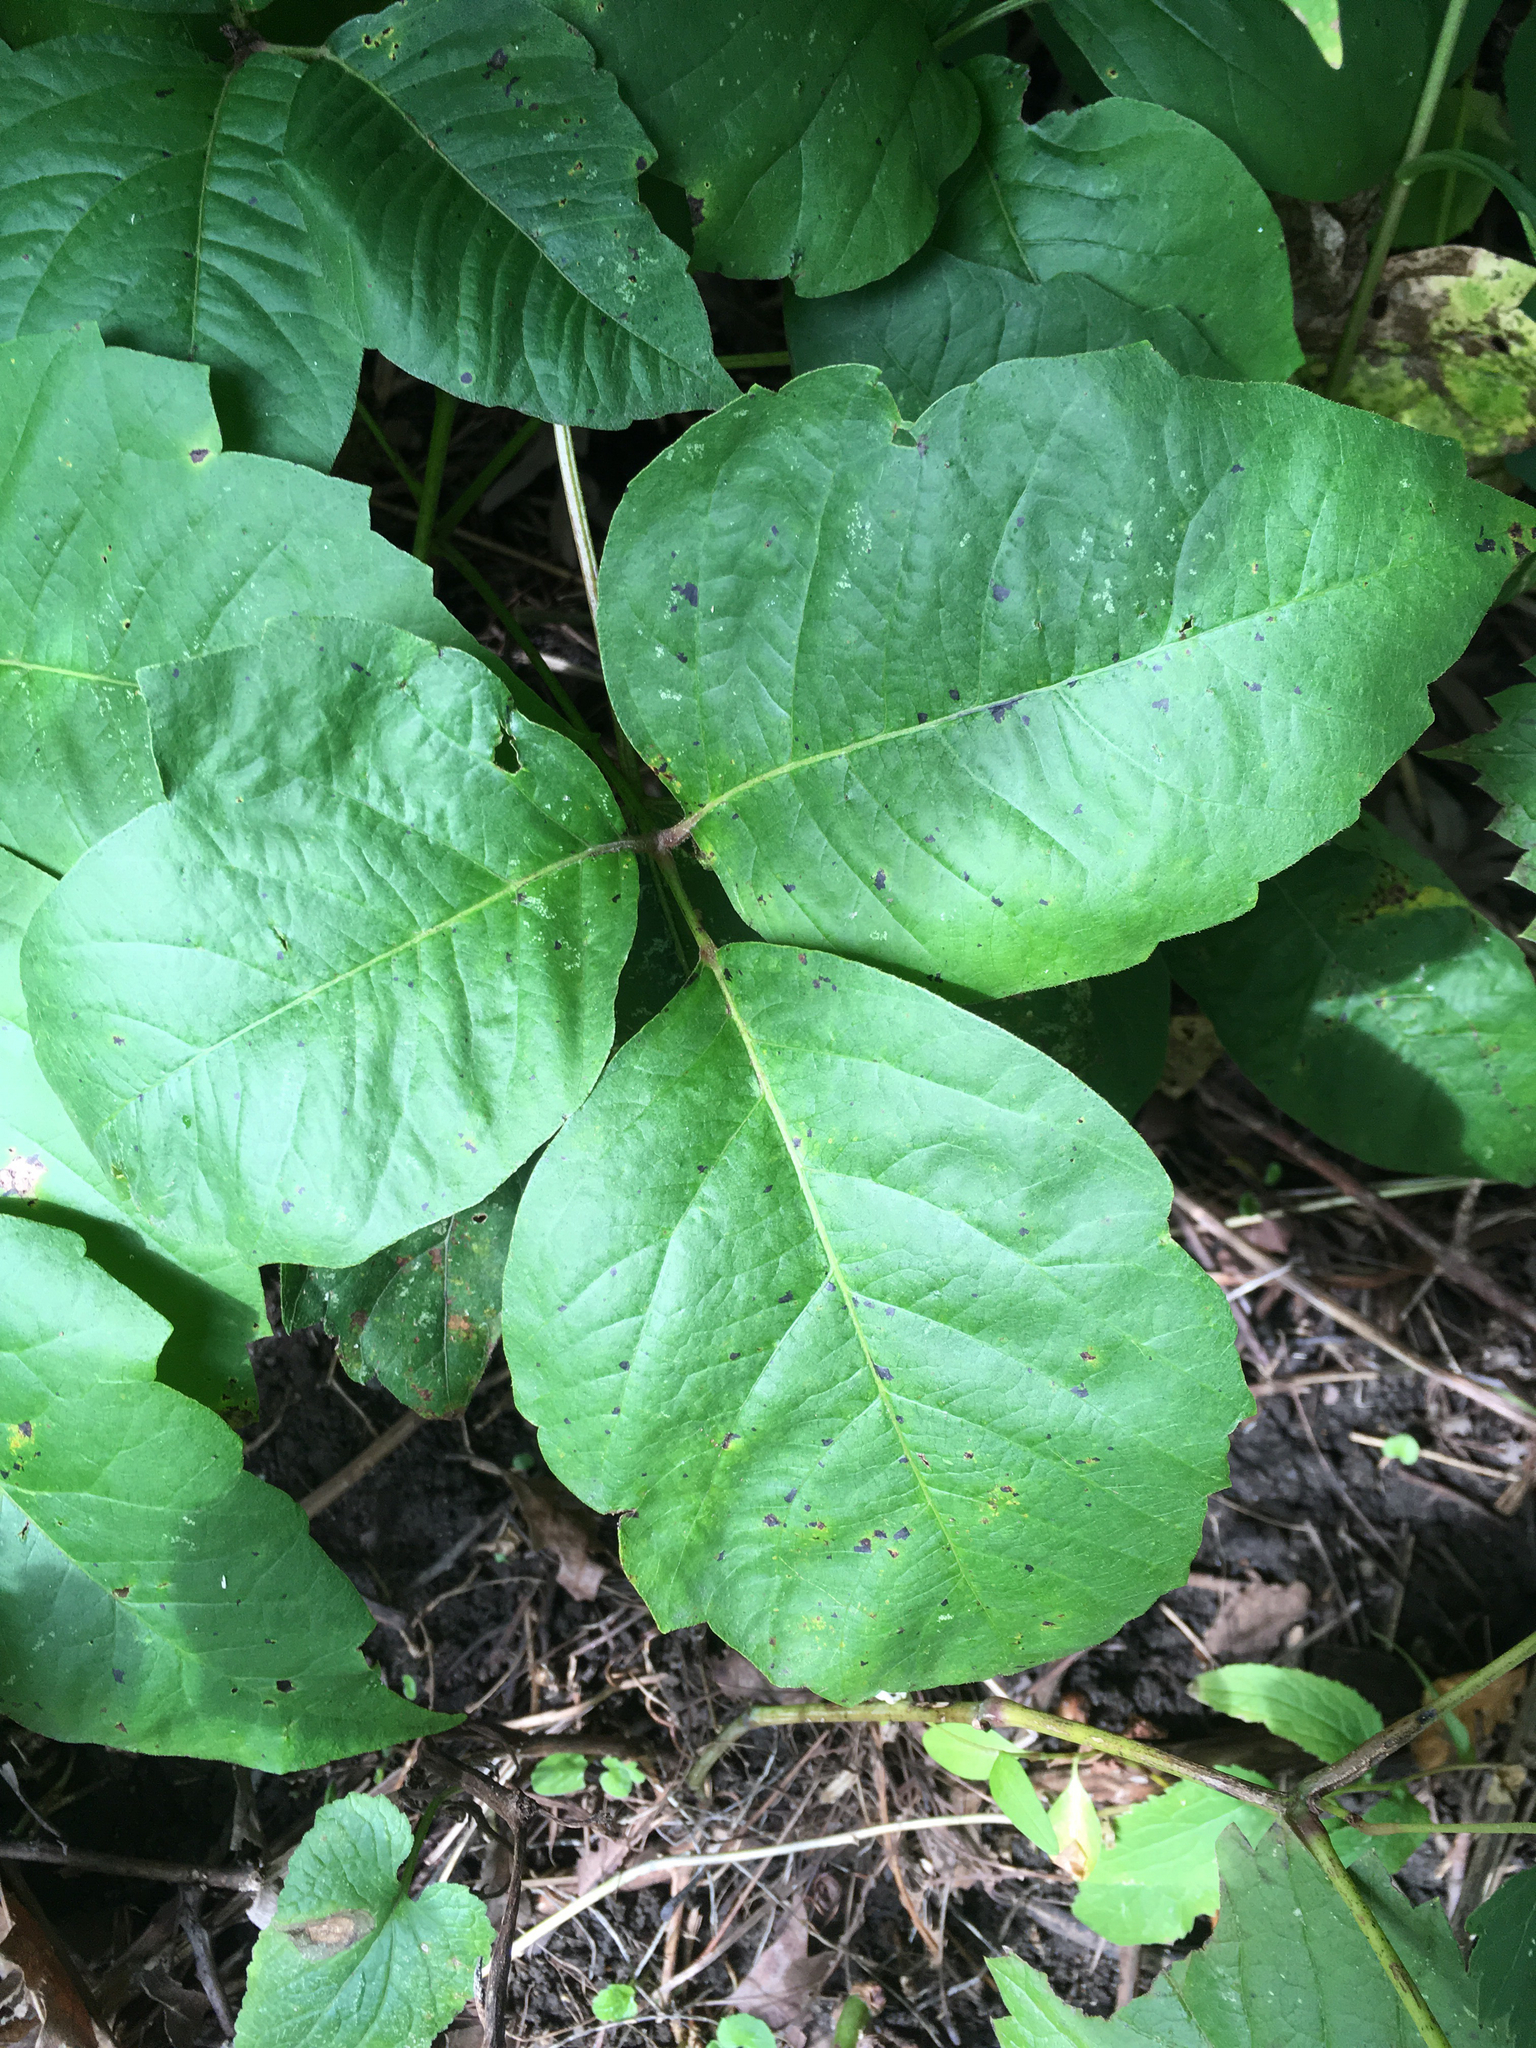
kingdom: Plantae
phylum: Tracheophyta
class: Magnoliopsida
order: Sapindales
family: Anacardiaceae
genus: Toxicodendron
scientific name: Toxicodendron rydbergii
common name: Rydberg's poison-ivy
